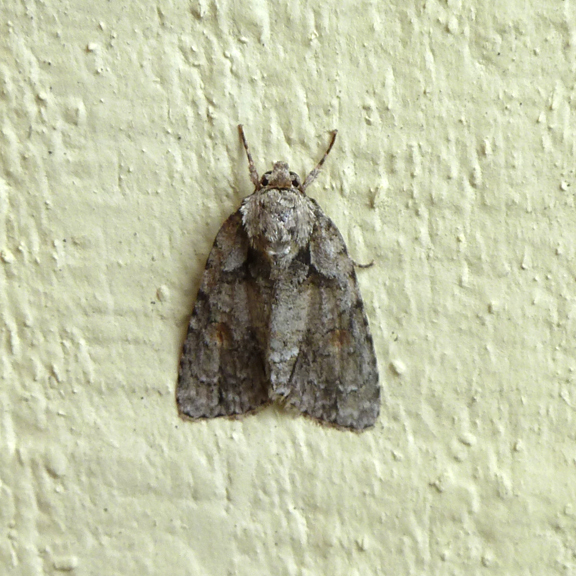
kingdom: Animalia
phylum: Arthropoda
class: Insecta
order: Lepidoptera
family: Noctuidae
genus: Acronicta
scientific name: Acronicta ovata
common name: Epauleted oak dagger
